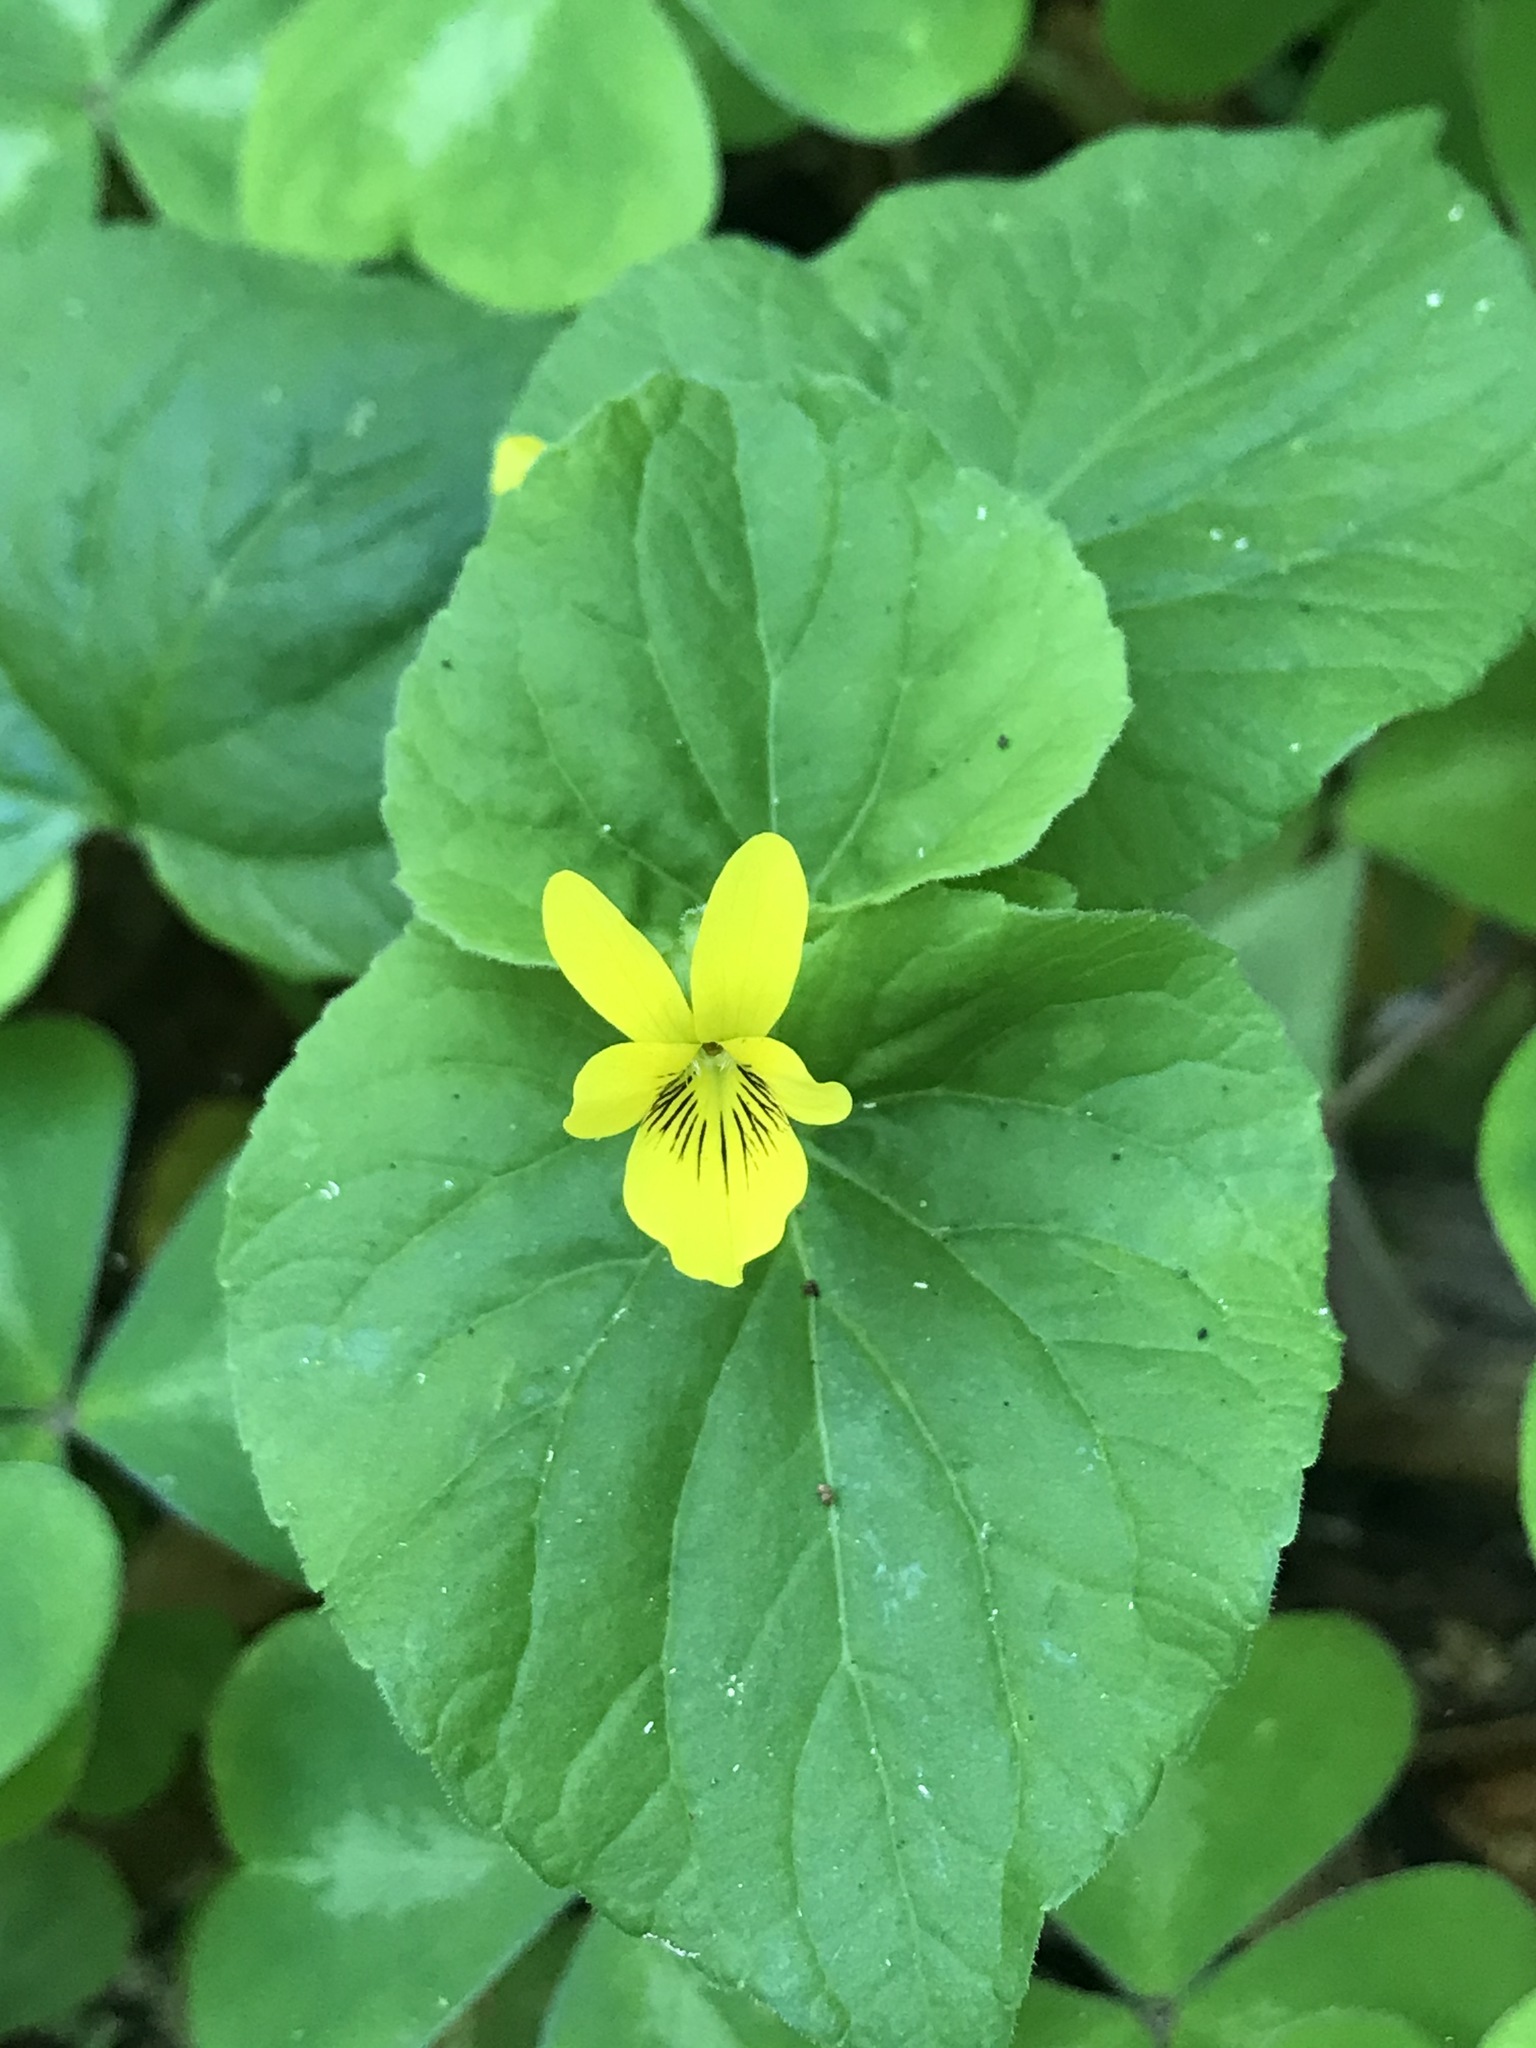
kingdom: Plantae
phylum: Tracheophyta
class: Magnoliopsida
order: Malpighiales
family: Violaceae
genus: Viola
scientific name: Viola glabella
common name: Stream violet
